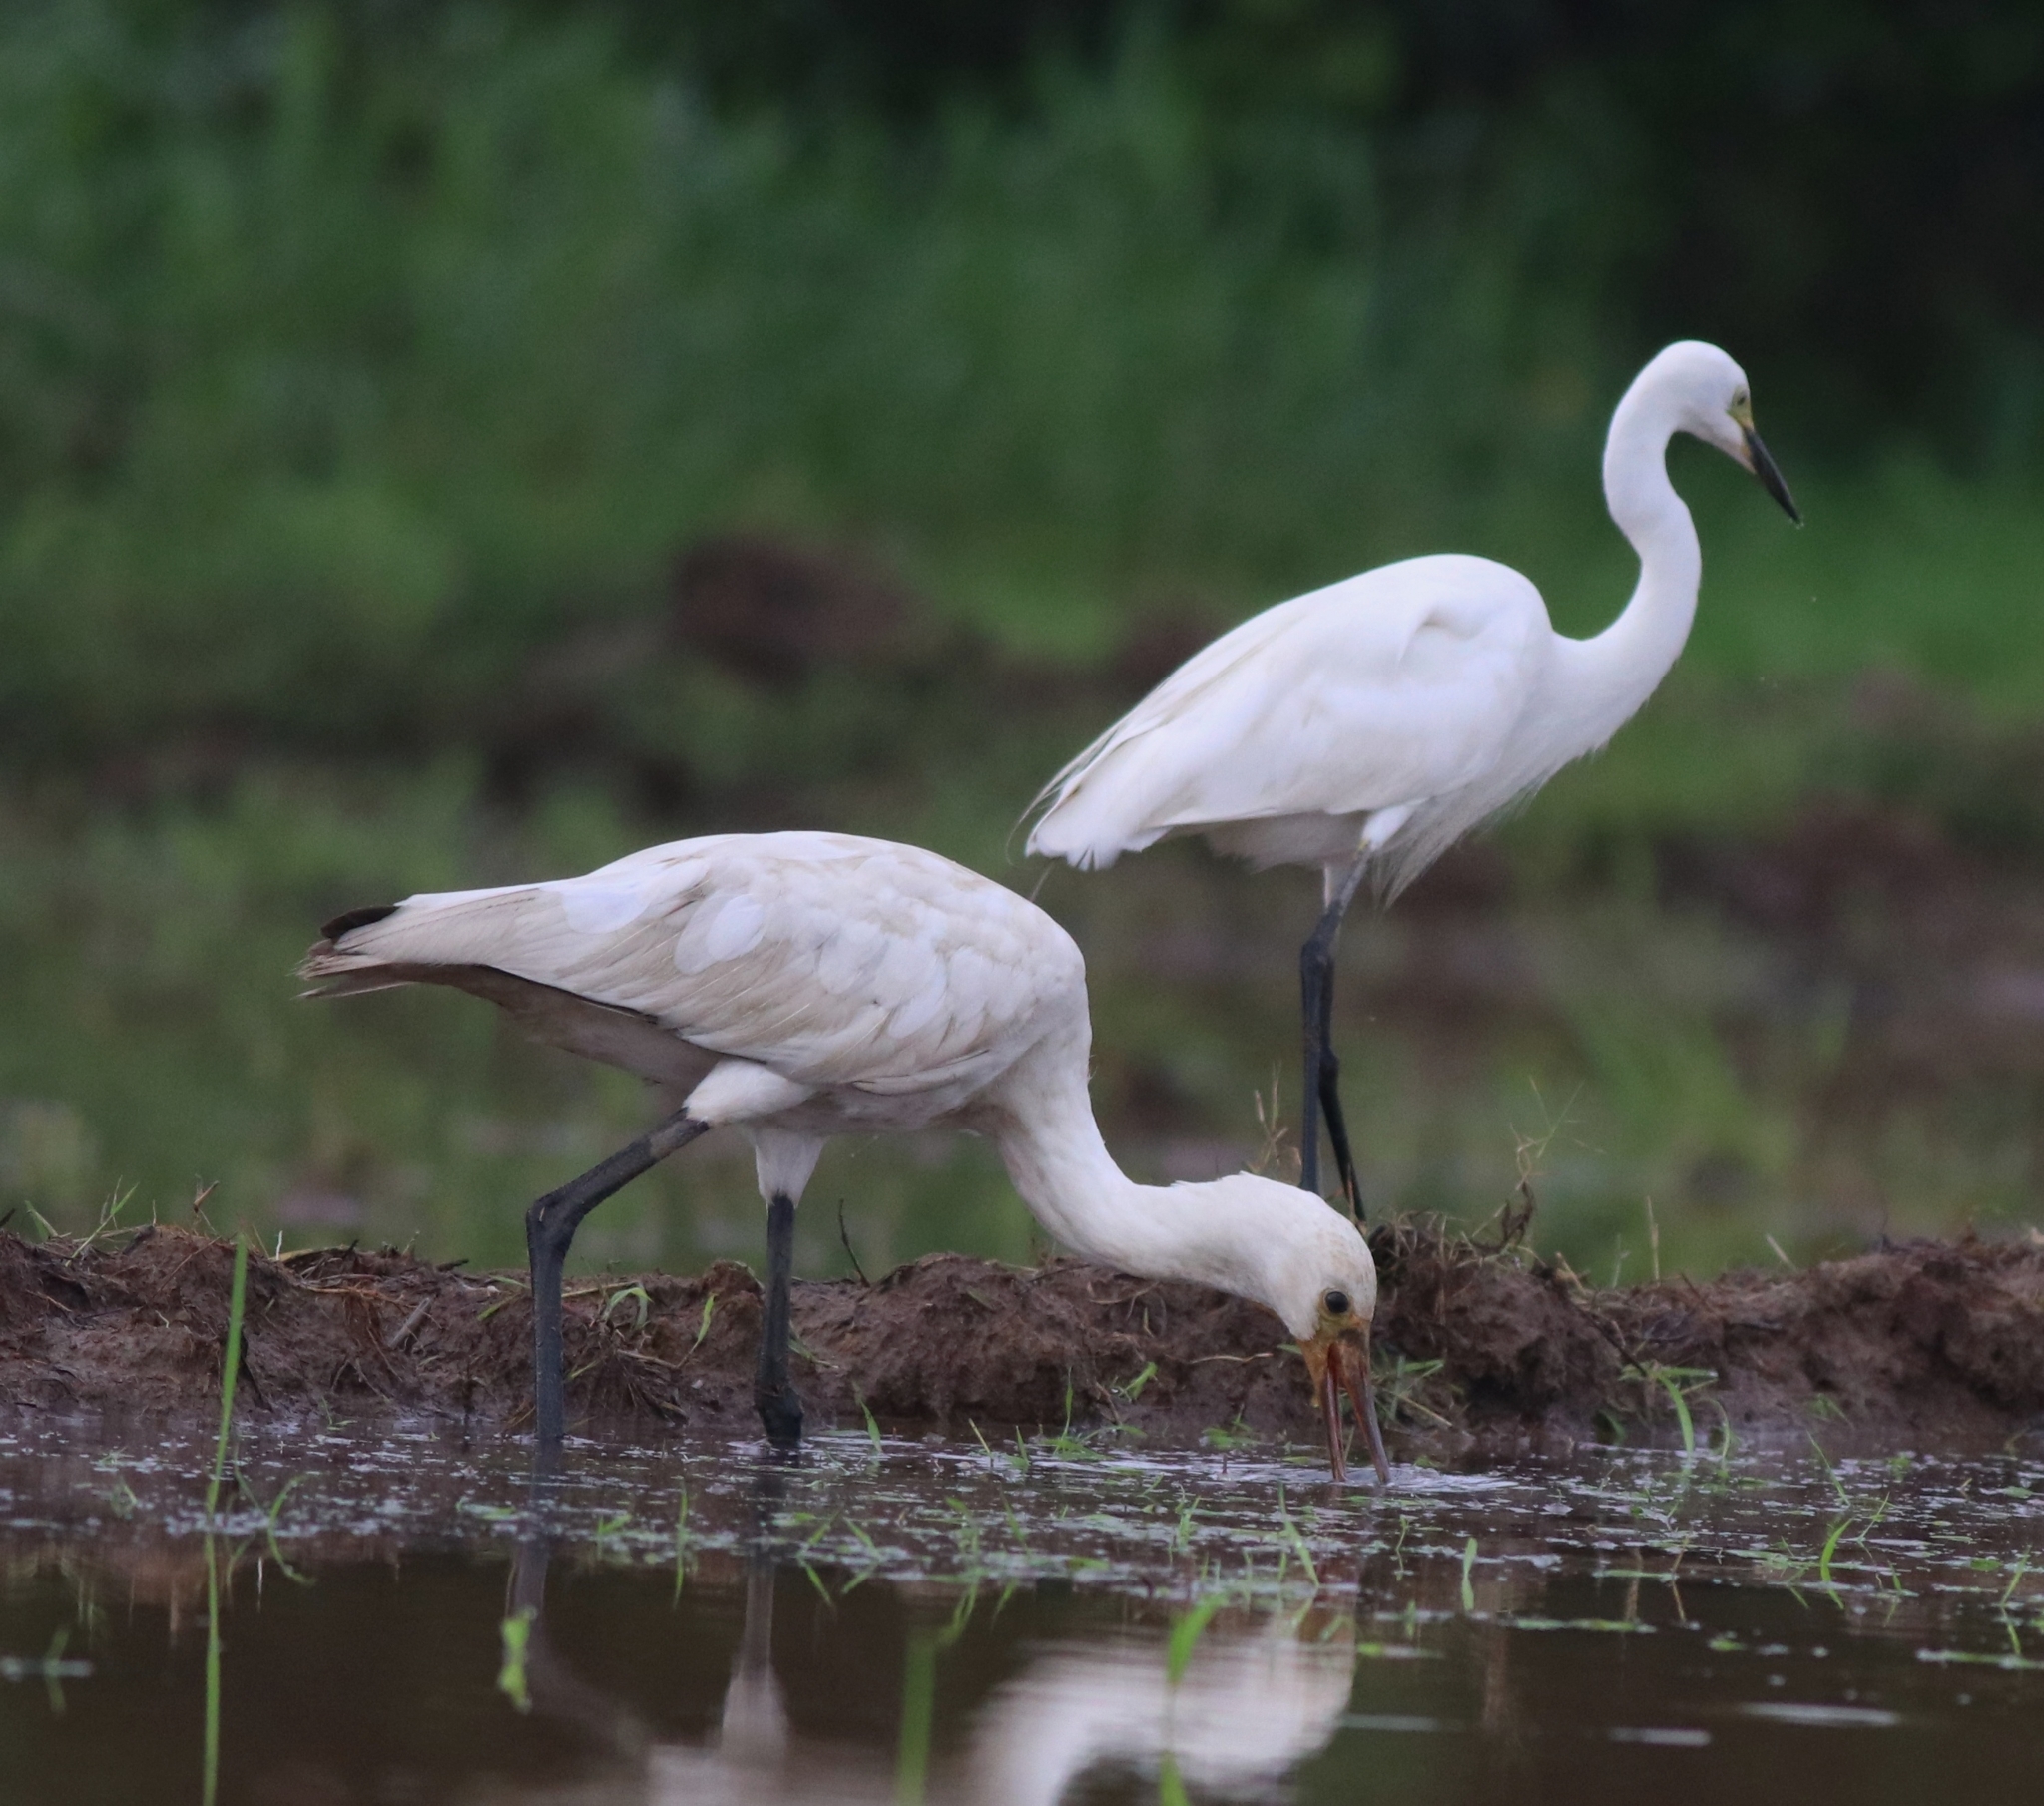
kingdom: Animalia
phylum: Chordata
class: Aves
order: Pelecaniformes
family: Ardeidae
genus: Egretta
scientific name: Egretta intermedia
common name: Intermediate egret
